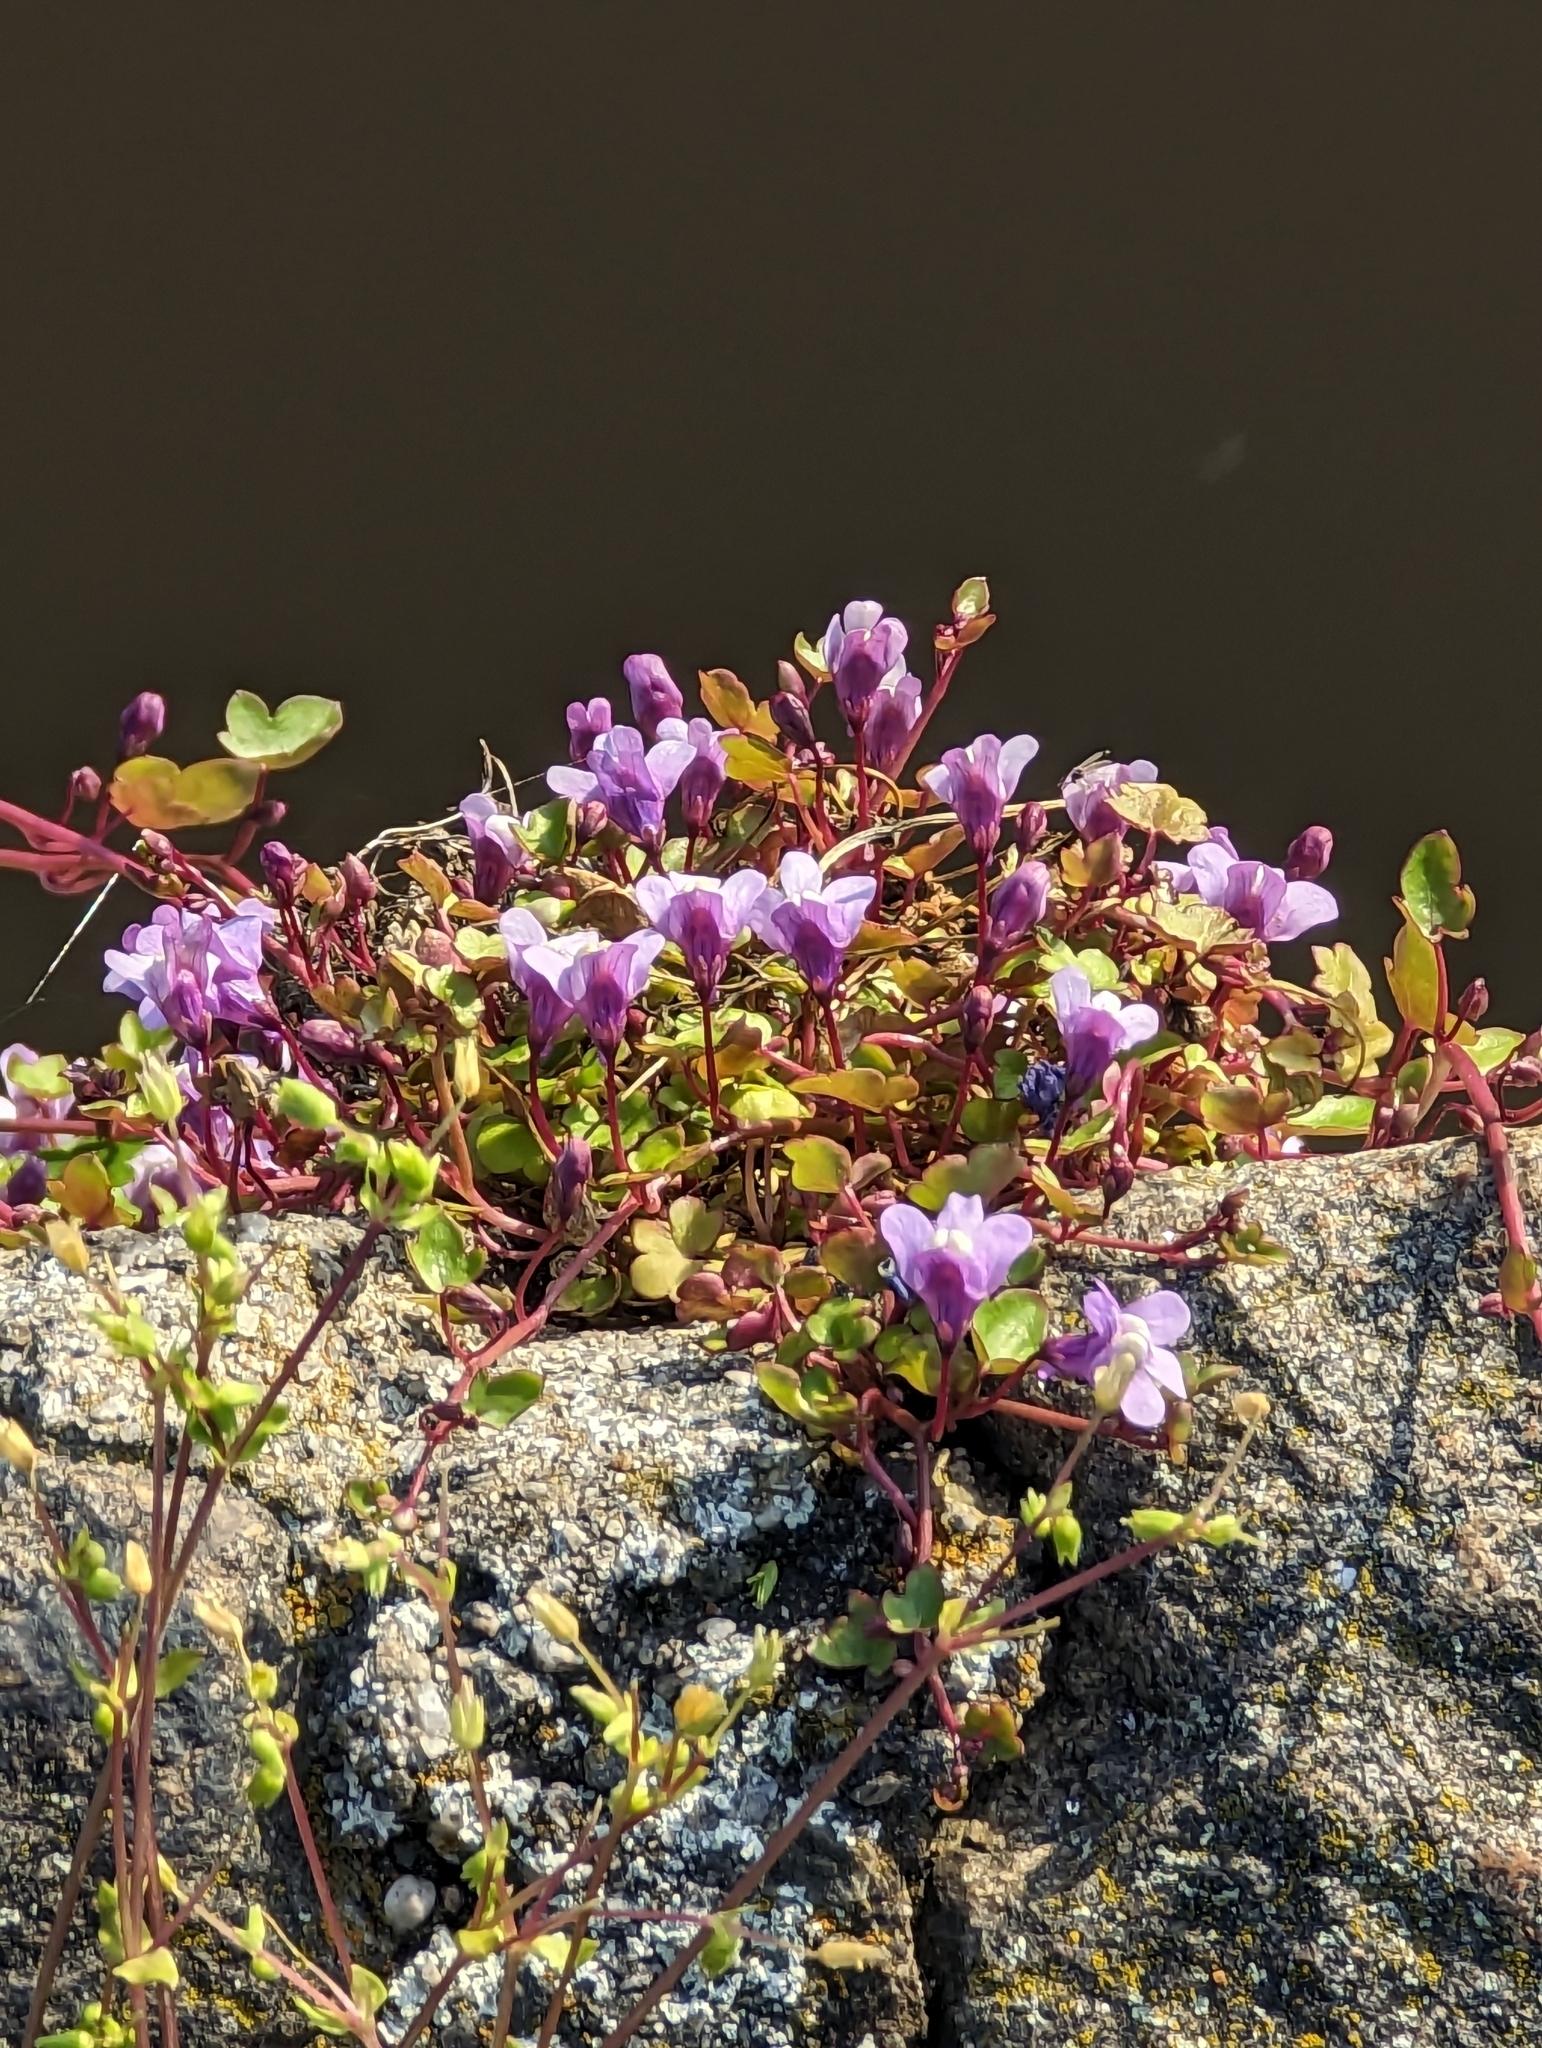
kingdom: Plantae
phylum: Tracheophyta
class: Magnoliopsida
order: Lamiales
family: Plantaginaceae
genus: Cymbalaria
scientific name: Cymbalaria muralis
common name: Ivy-leaved toadflax
